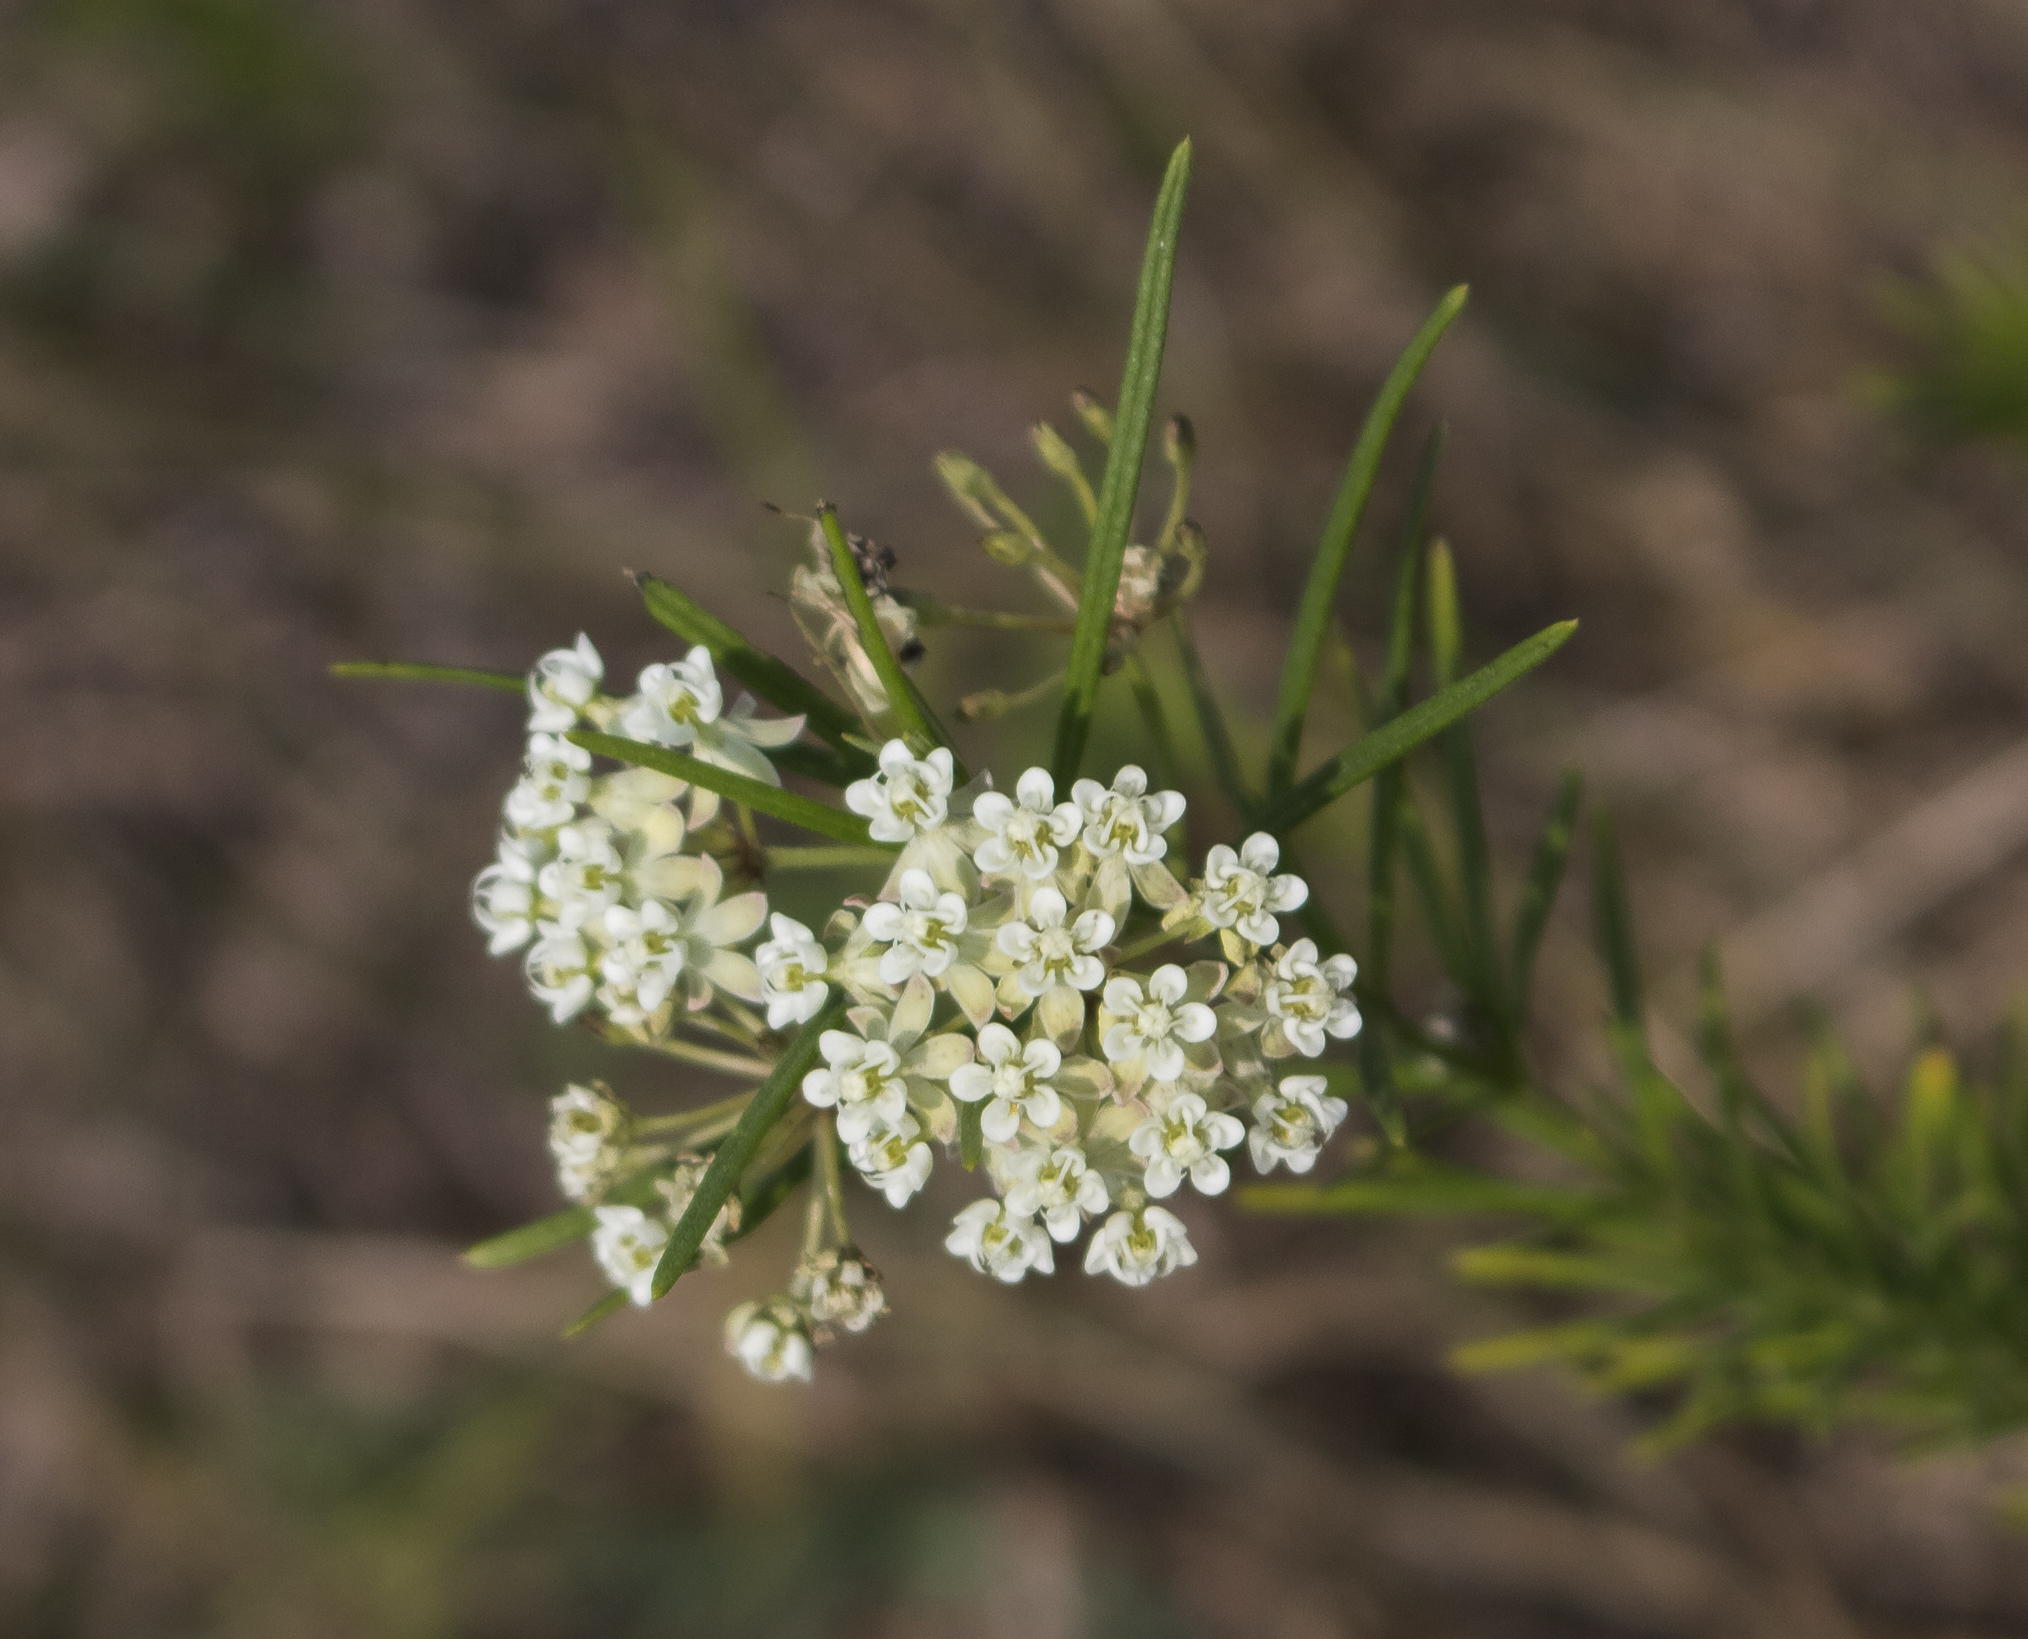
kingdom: Plantae
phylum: Tracheophyta
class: Magnoliopsida
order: Gentianales
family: Apocynaceae
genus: Asclepias
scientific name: Asclepias verticillata
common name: Eastern whorled milkweed
